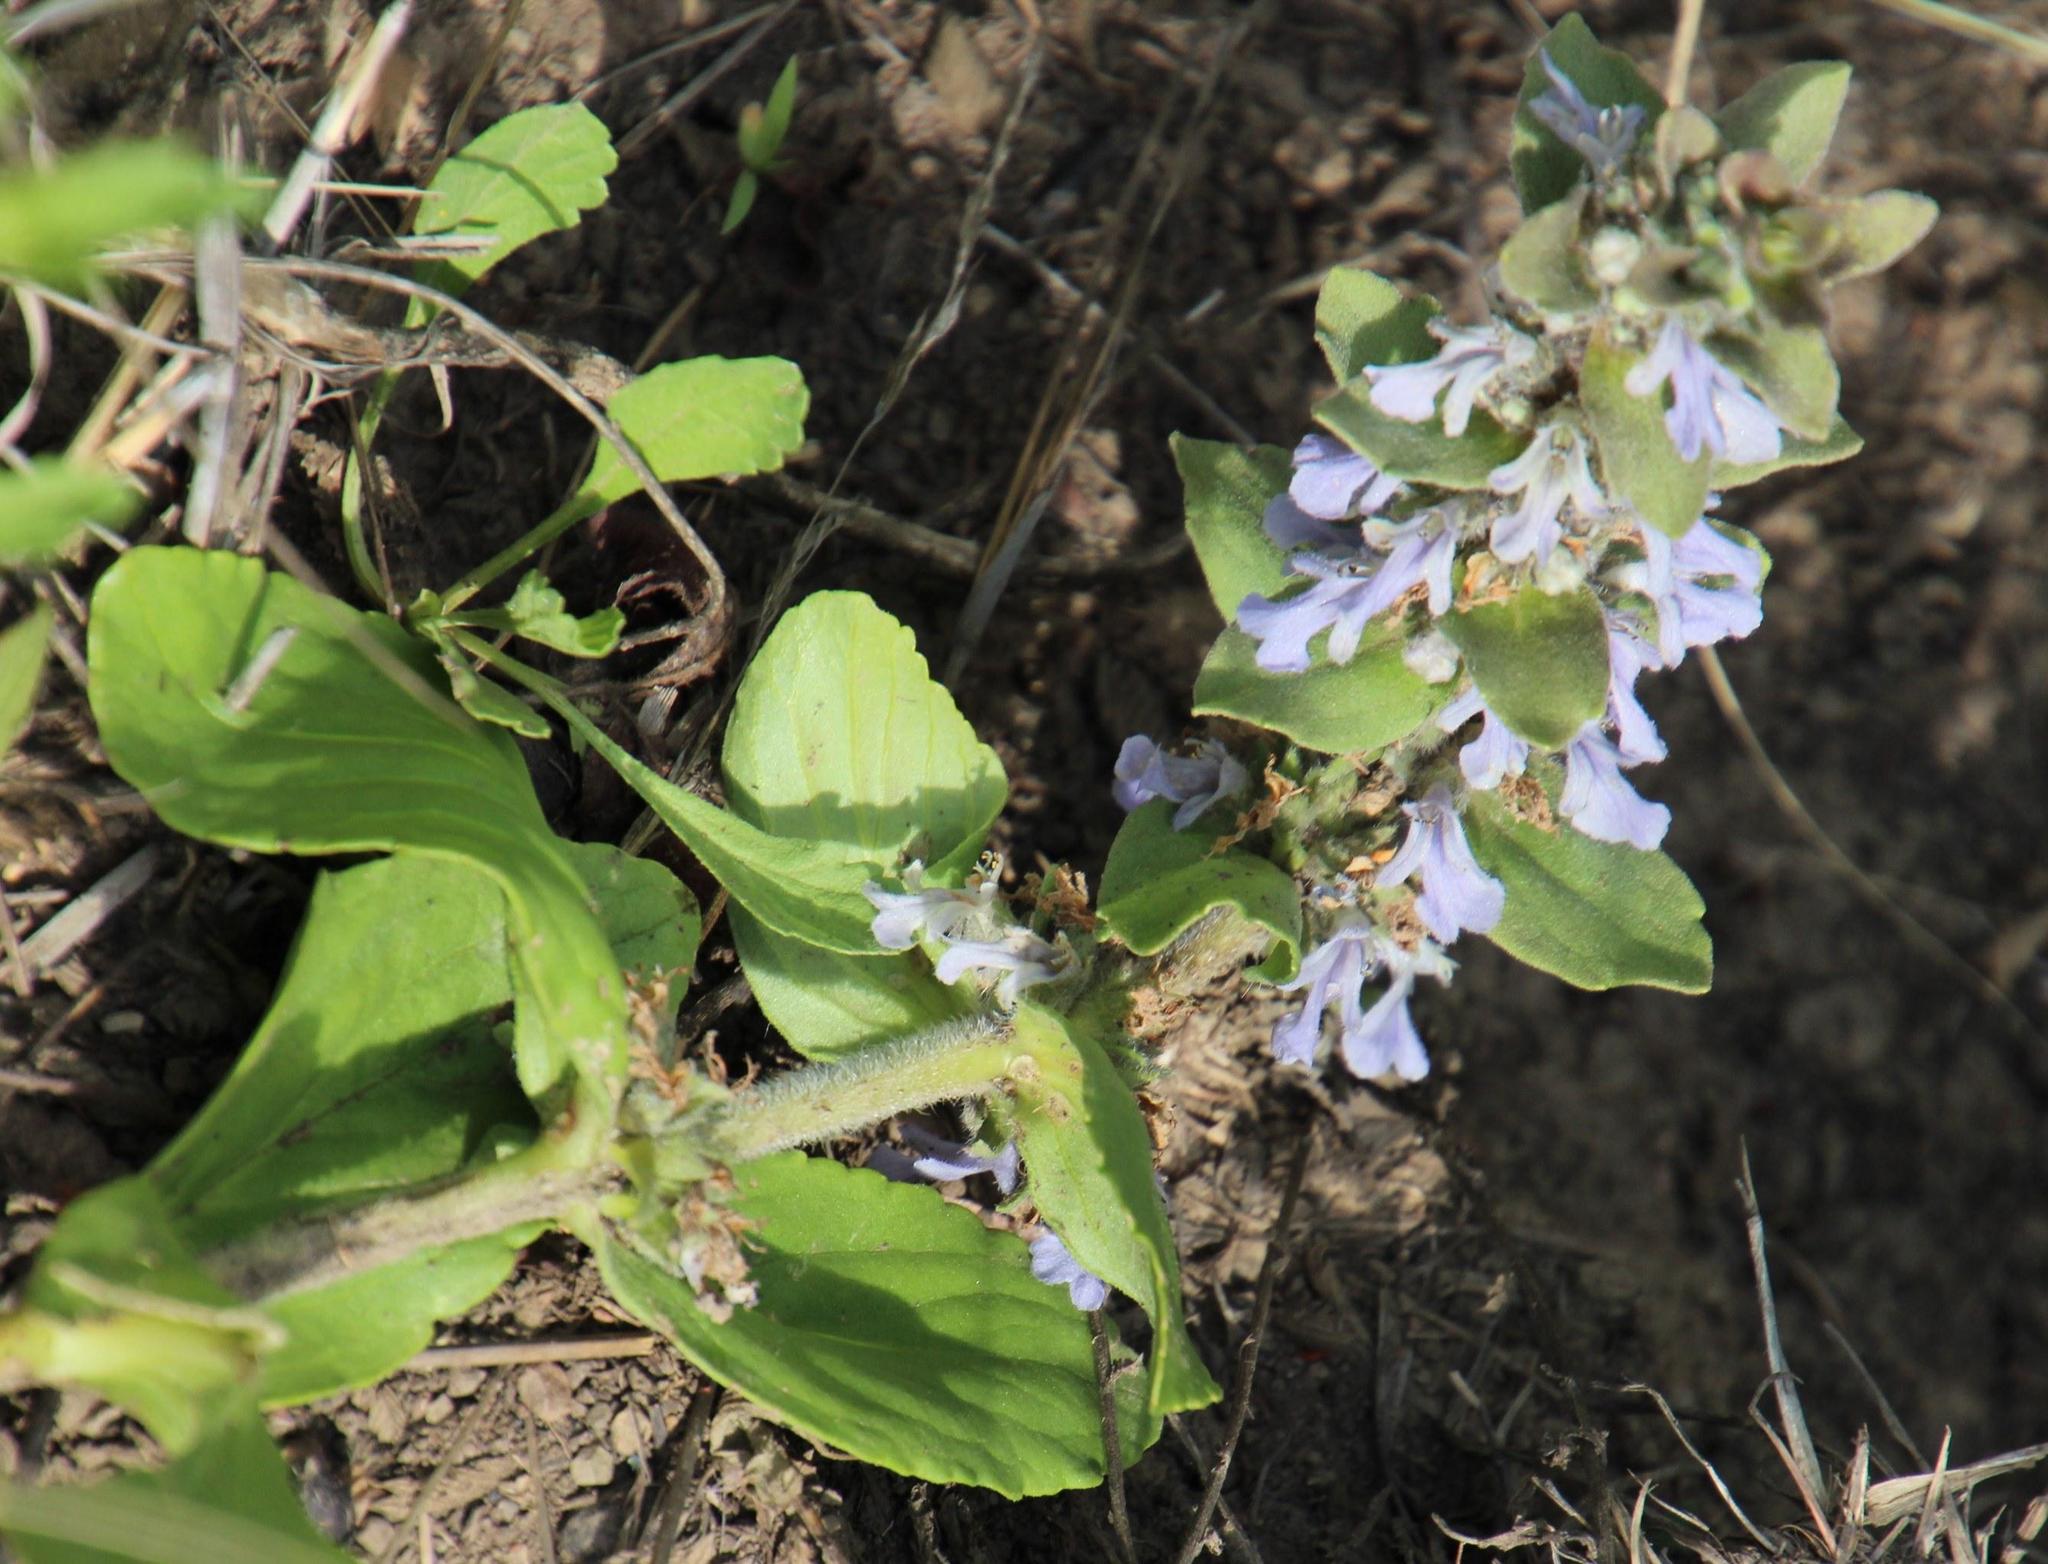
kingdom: Plantae
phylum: Tracheophyta
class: Magnoliopsida
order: Lamiales
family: Lamiaceae
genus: Ajuga
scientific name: Ajuga ophrydis
